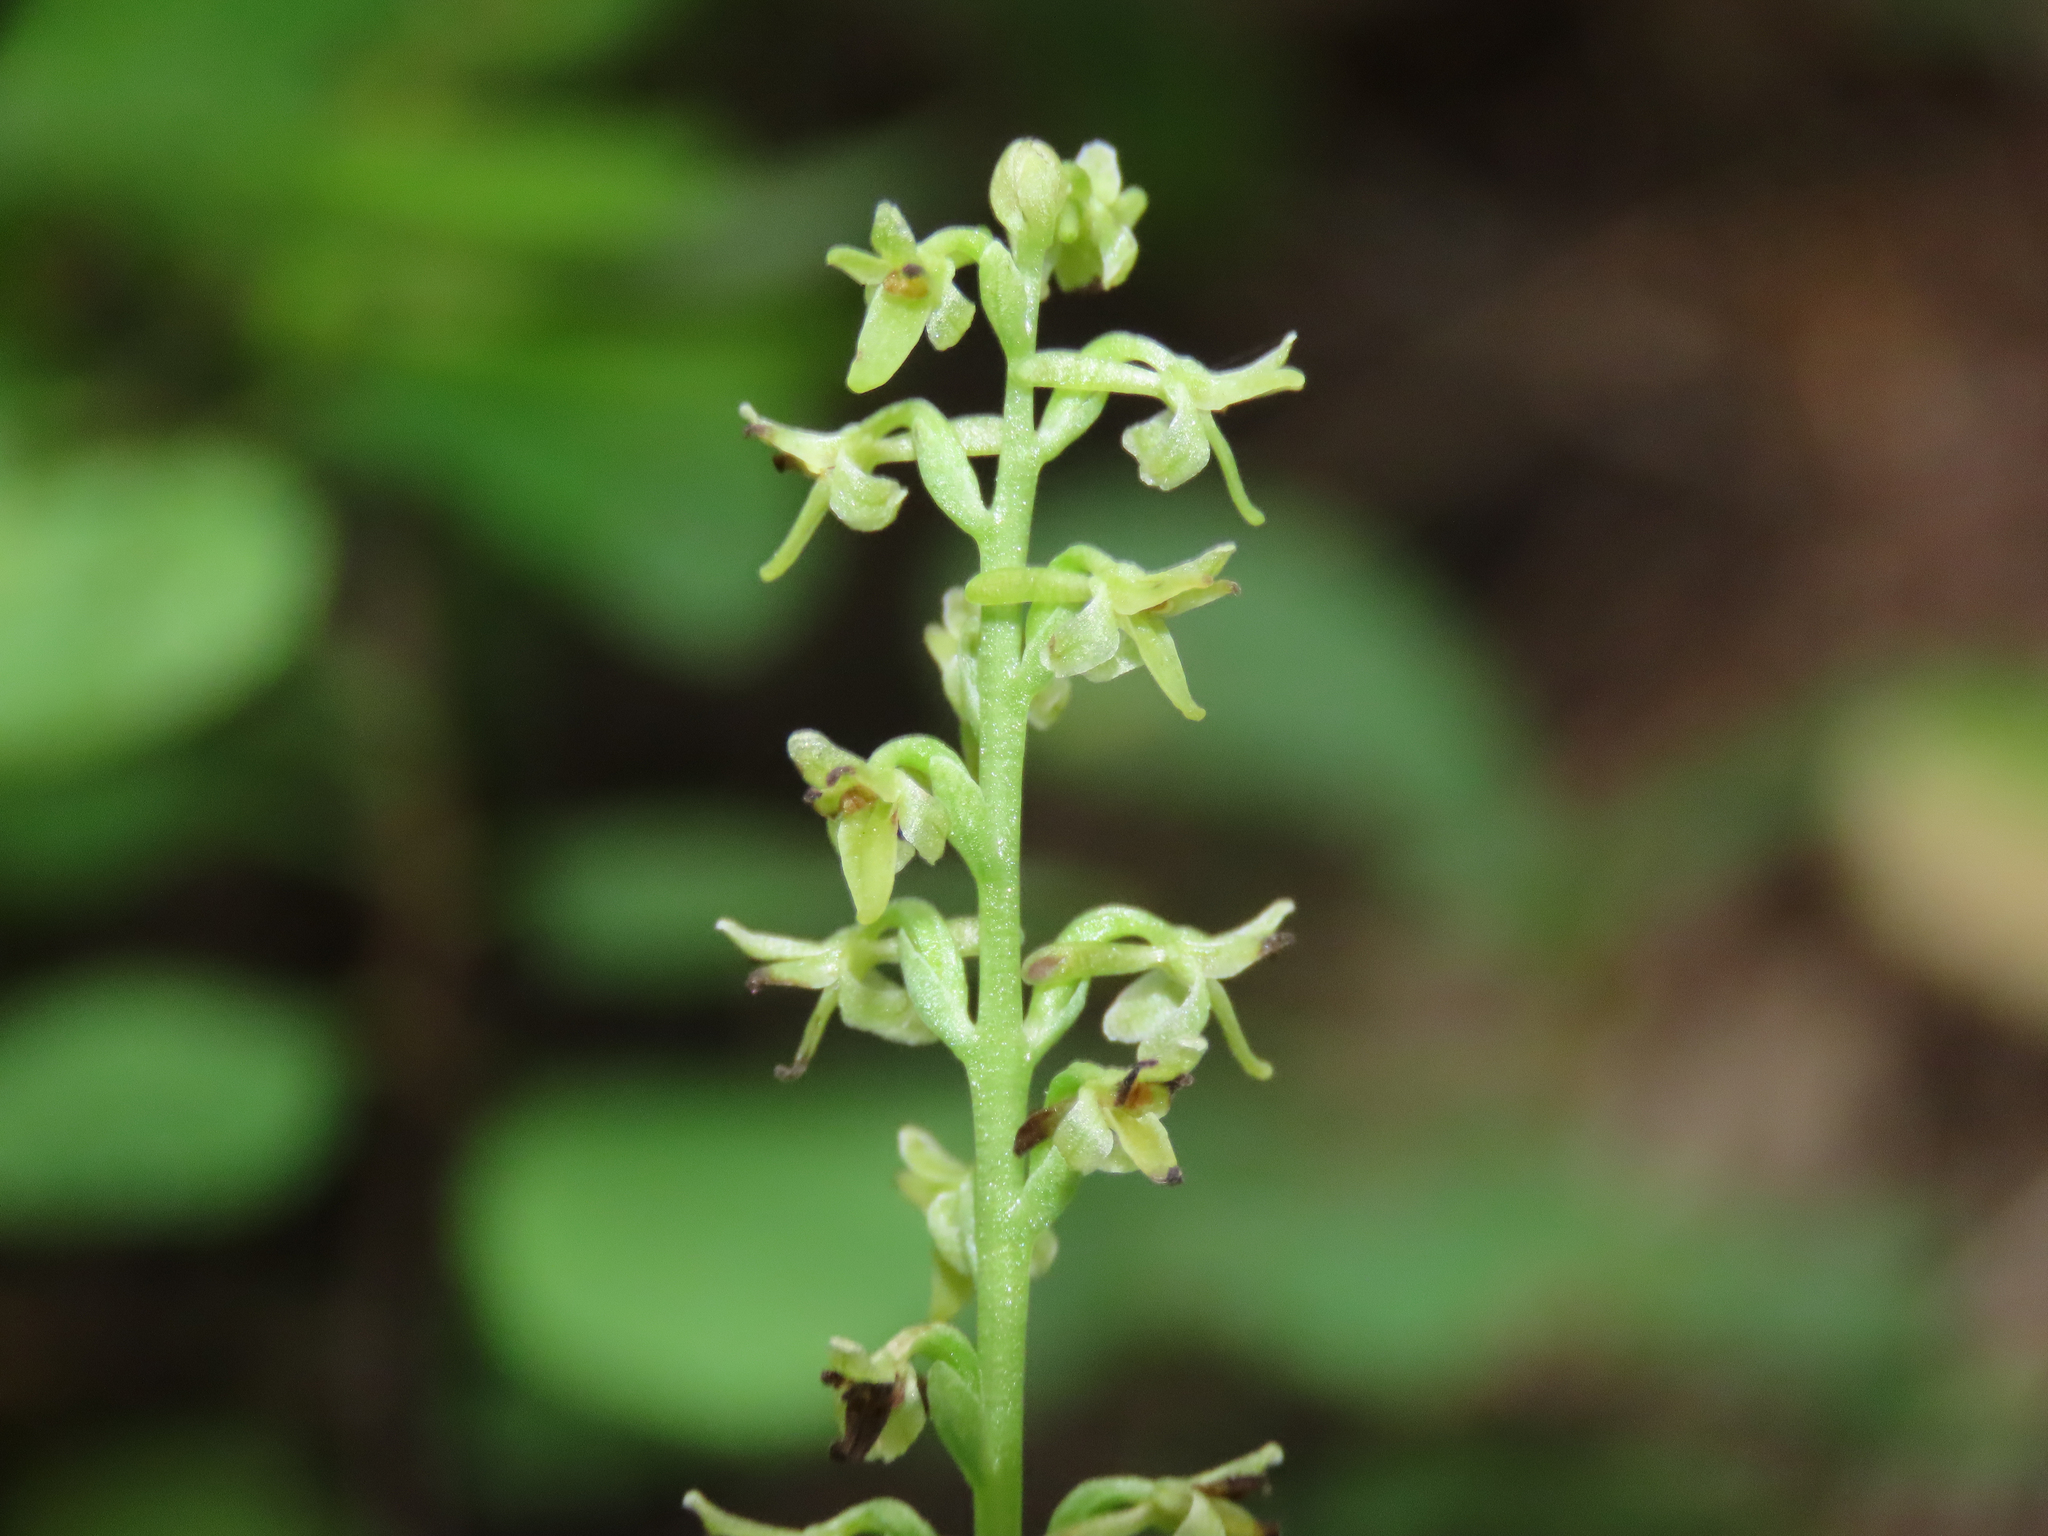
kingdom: Plantae
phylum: Tracheophyta
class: Liliopsida
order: Asparagales
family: Orchidaceae
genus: Platanthera
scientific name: Platanthera unalascensis
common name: Alaska bog orchid
